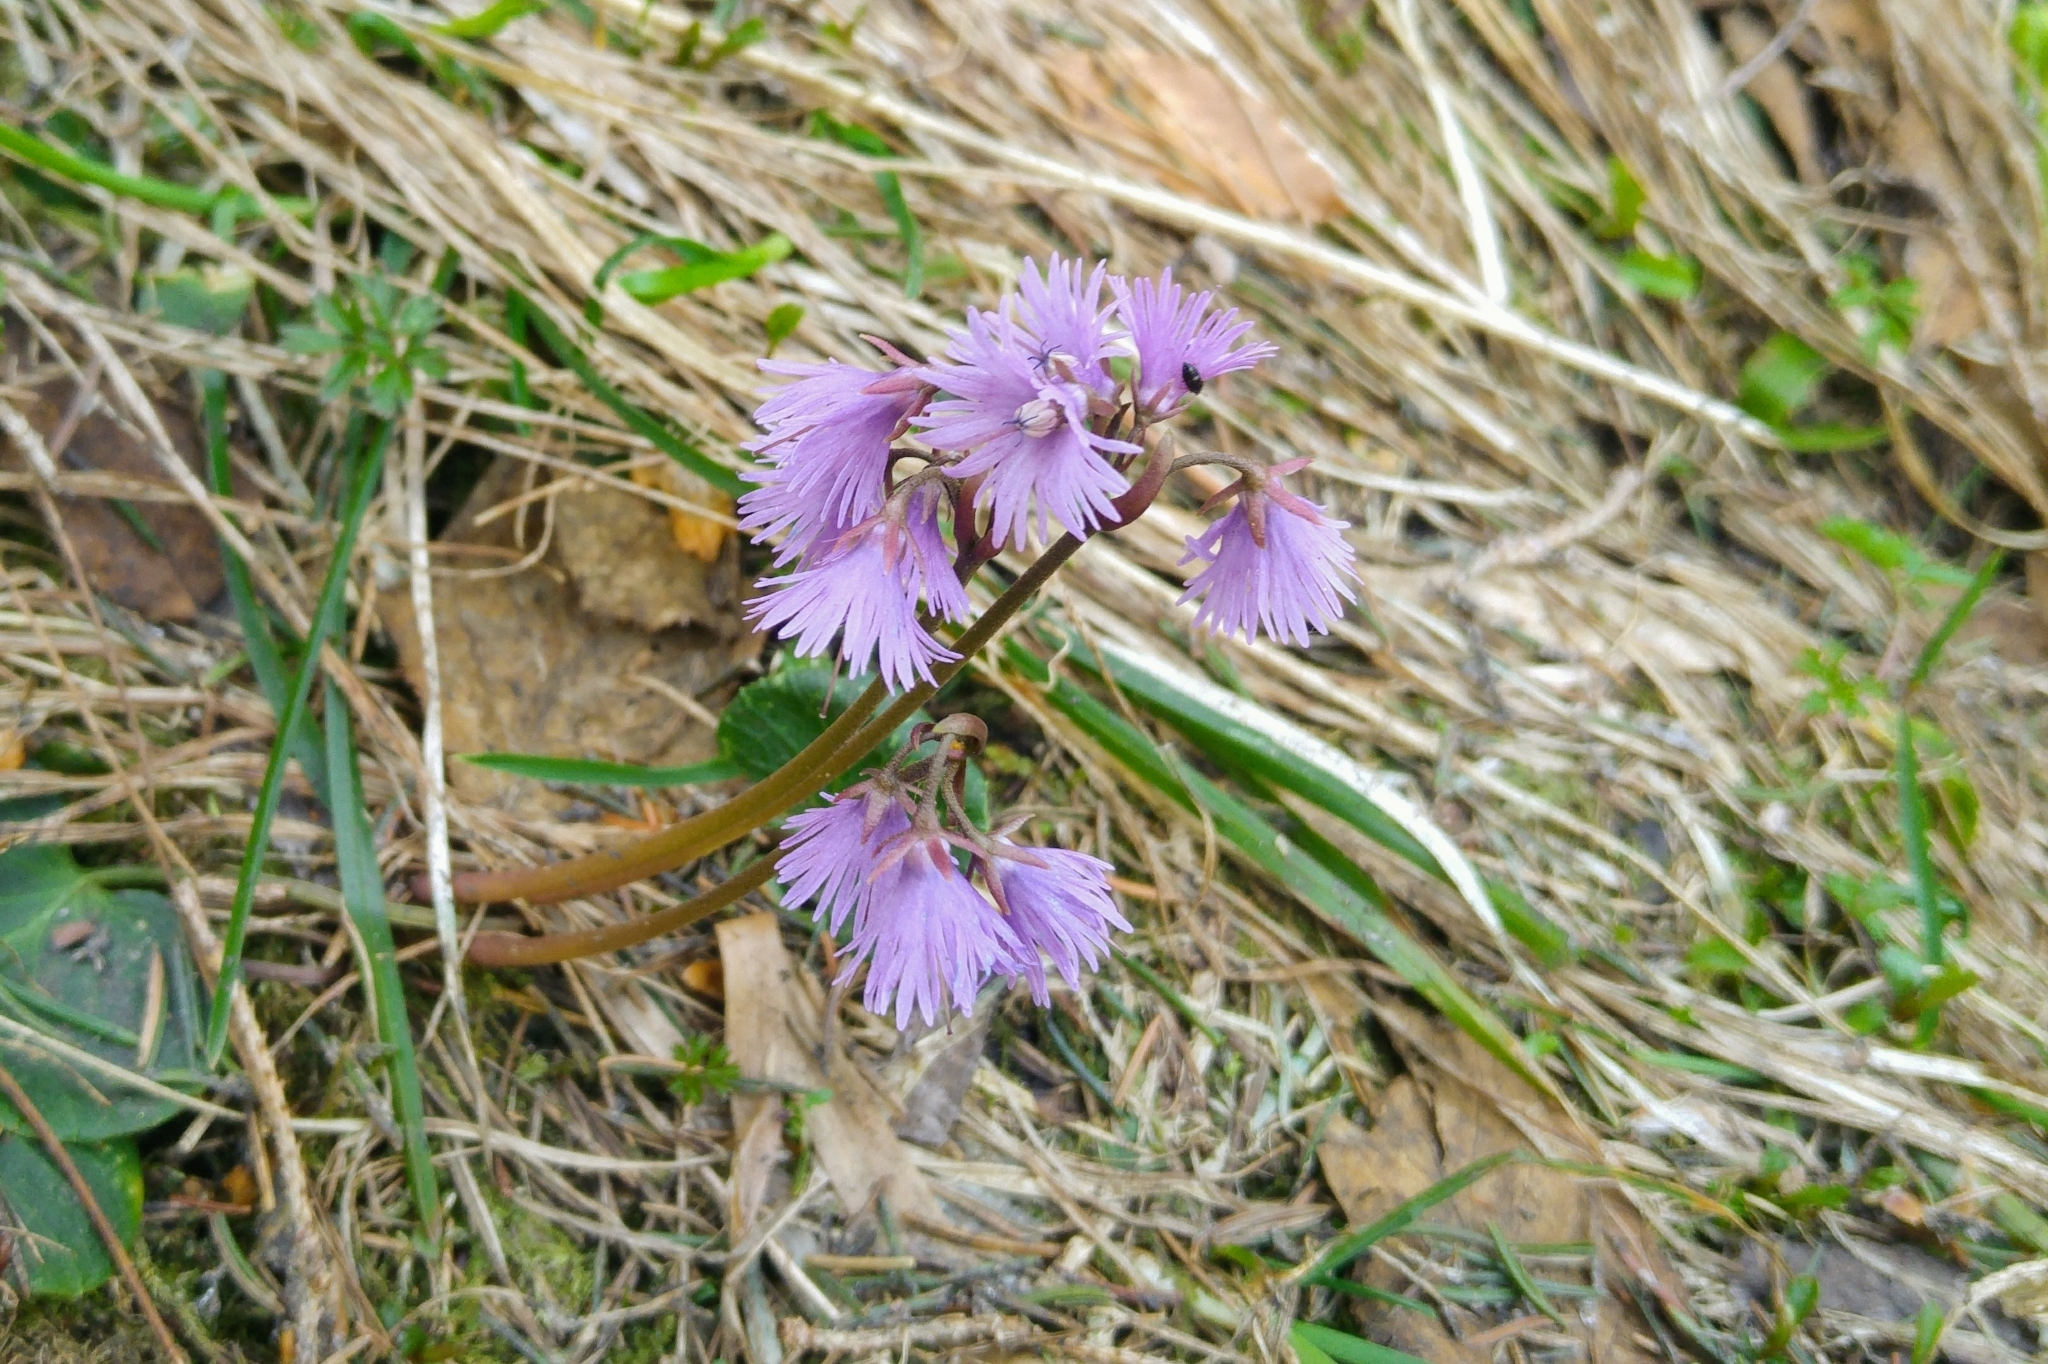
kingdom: Plantae
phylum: Tracheophyta
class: Magnoliopsida
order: Ericales
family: Primulaceae
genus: Soldanella
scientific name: Soldanella alpina
